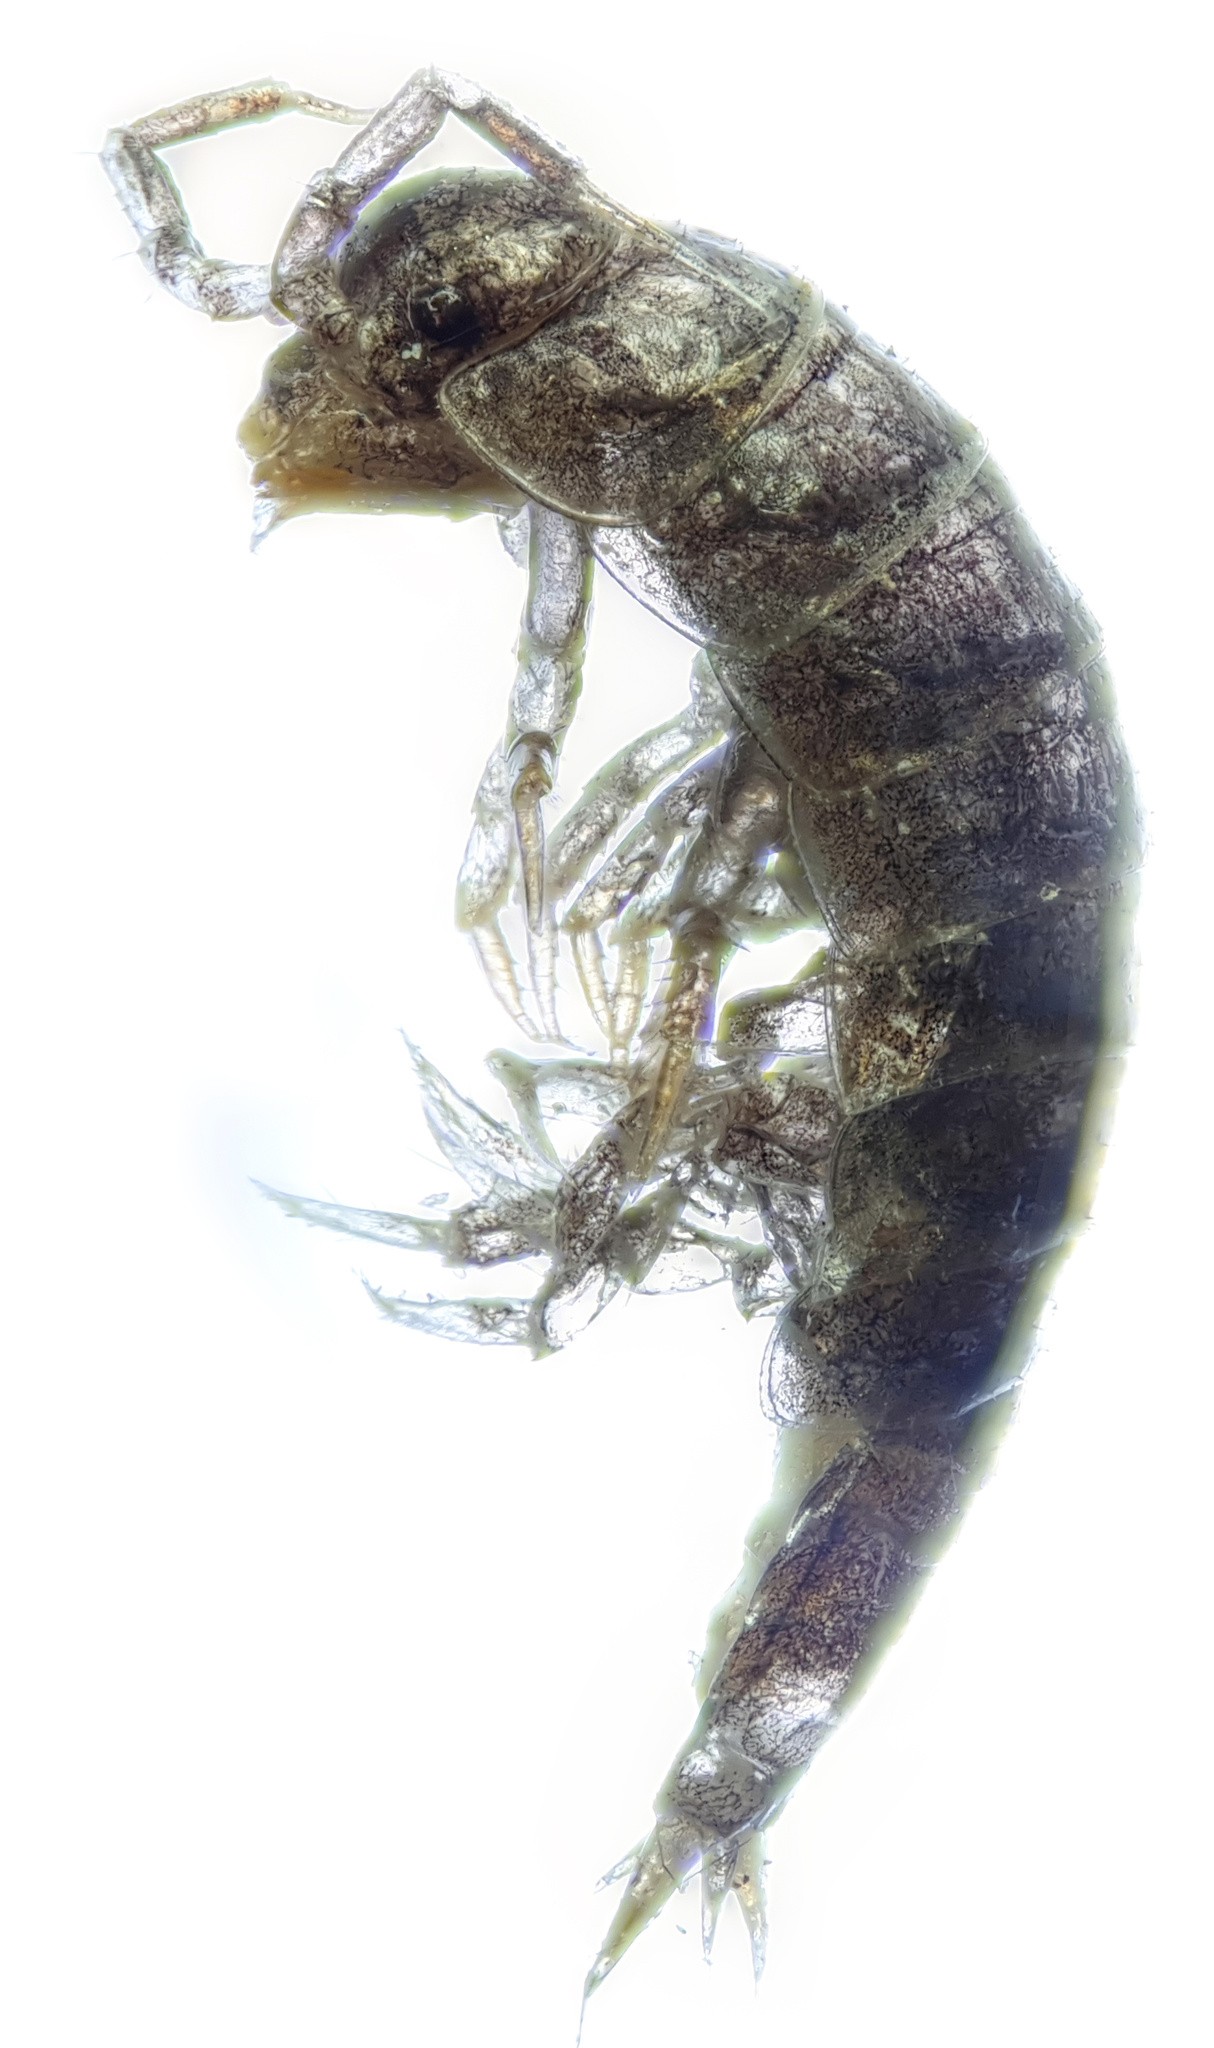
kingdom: Animalia
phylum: Arthropoda
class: Malacostraca
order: Isopoda
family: Trichoniscidae
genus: Hyloniscus
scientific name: Hyloniscus riparius
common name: Isopod
